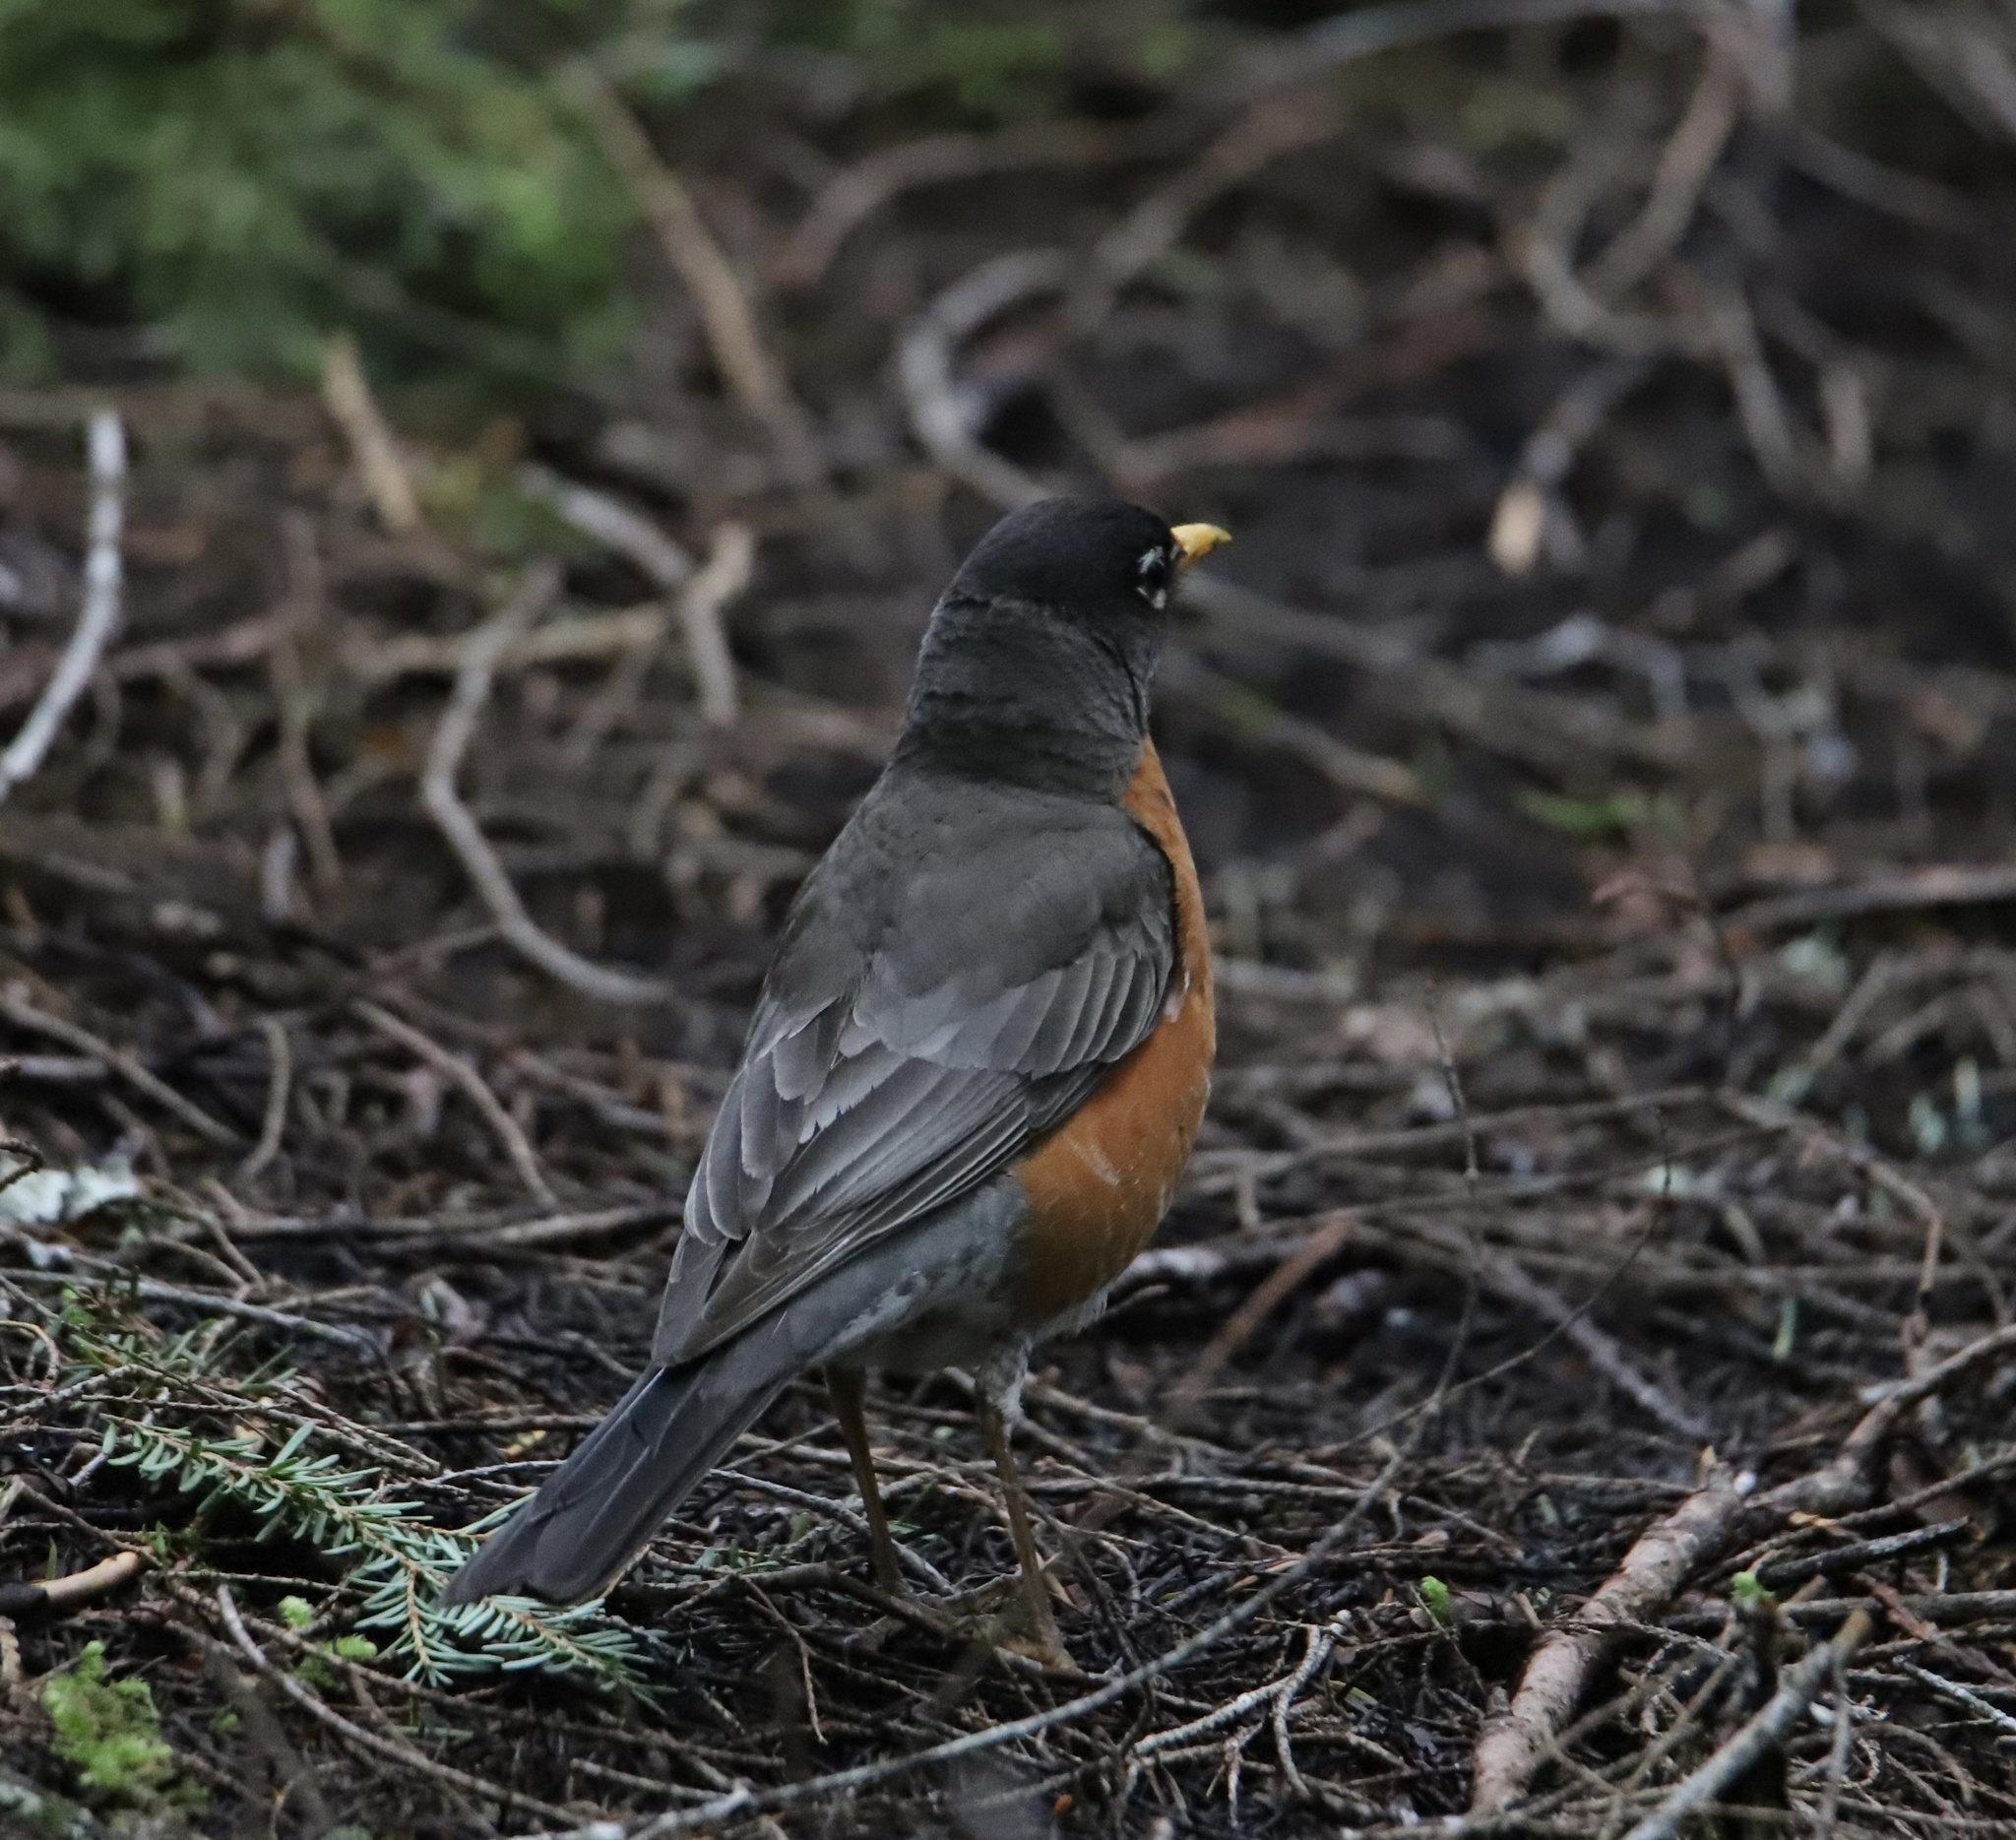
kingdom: Animalia
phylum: Chordata
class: Aves
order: Passeriformes
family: Turdidae
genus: Turdus
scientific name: Turdus migratorius
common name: American robin
